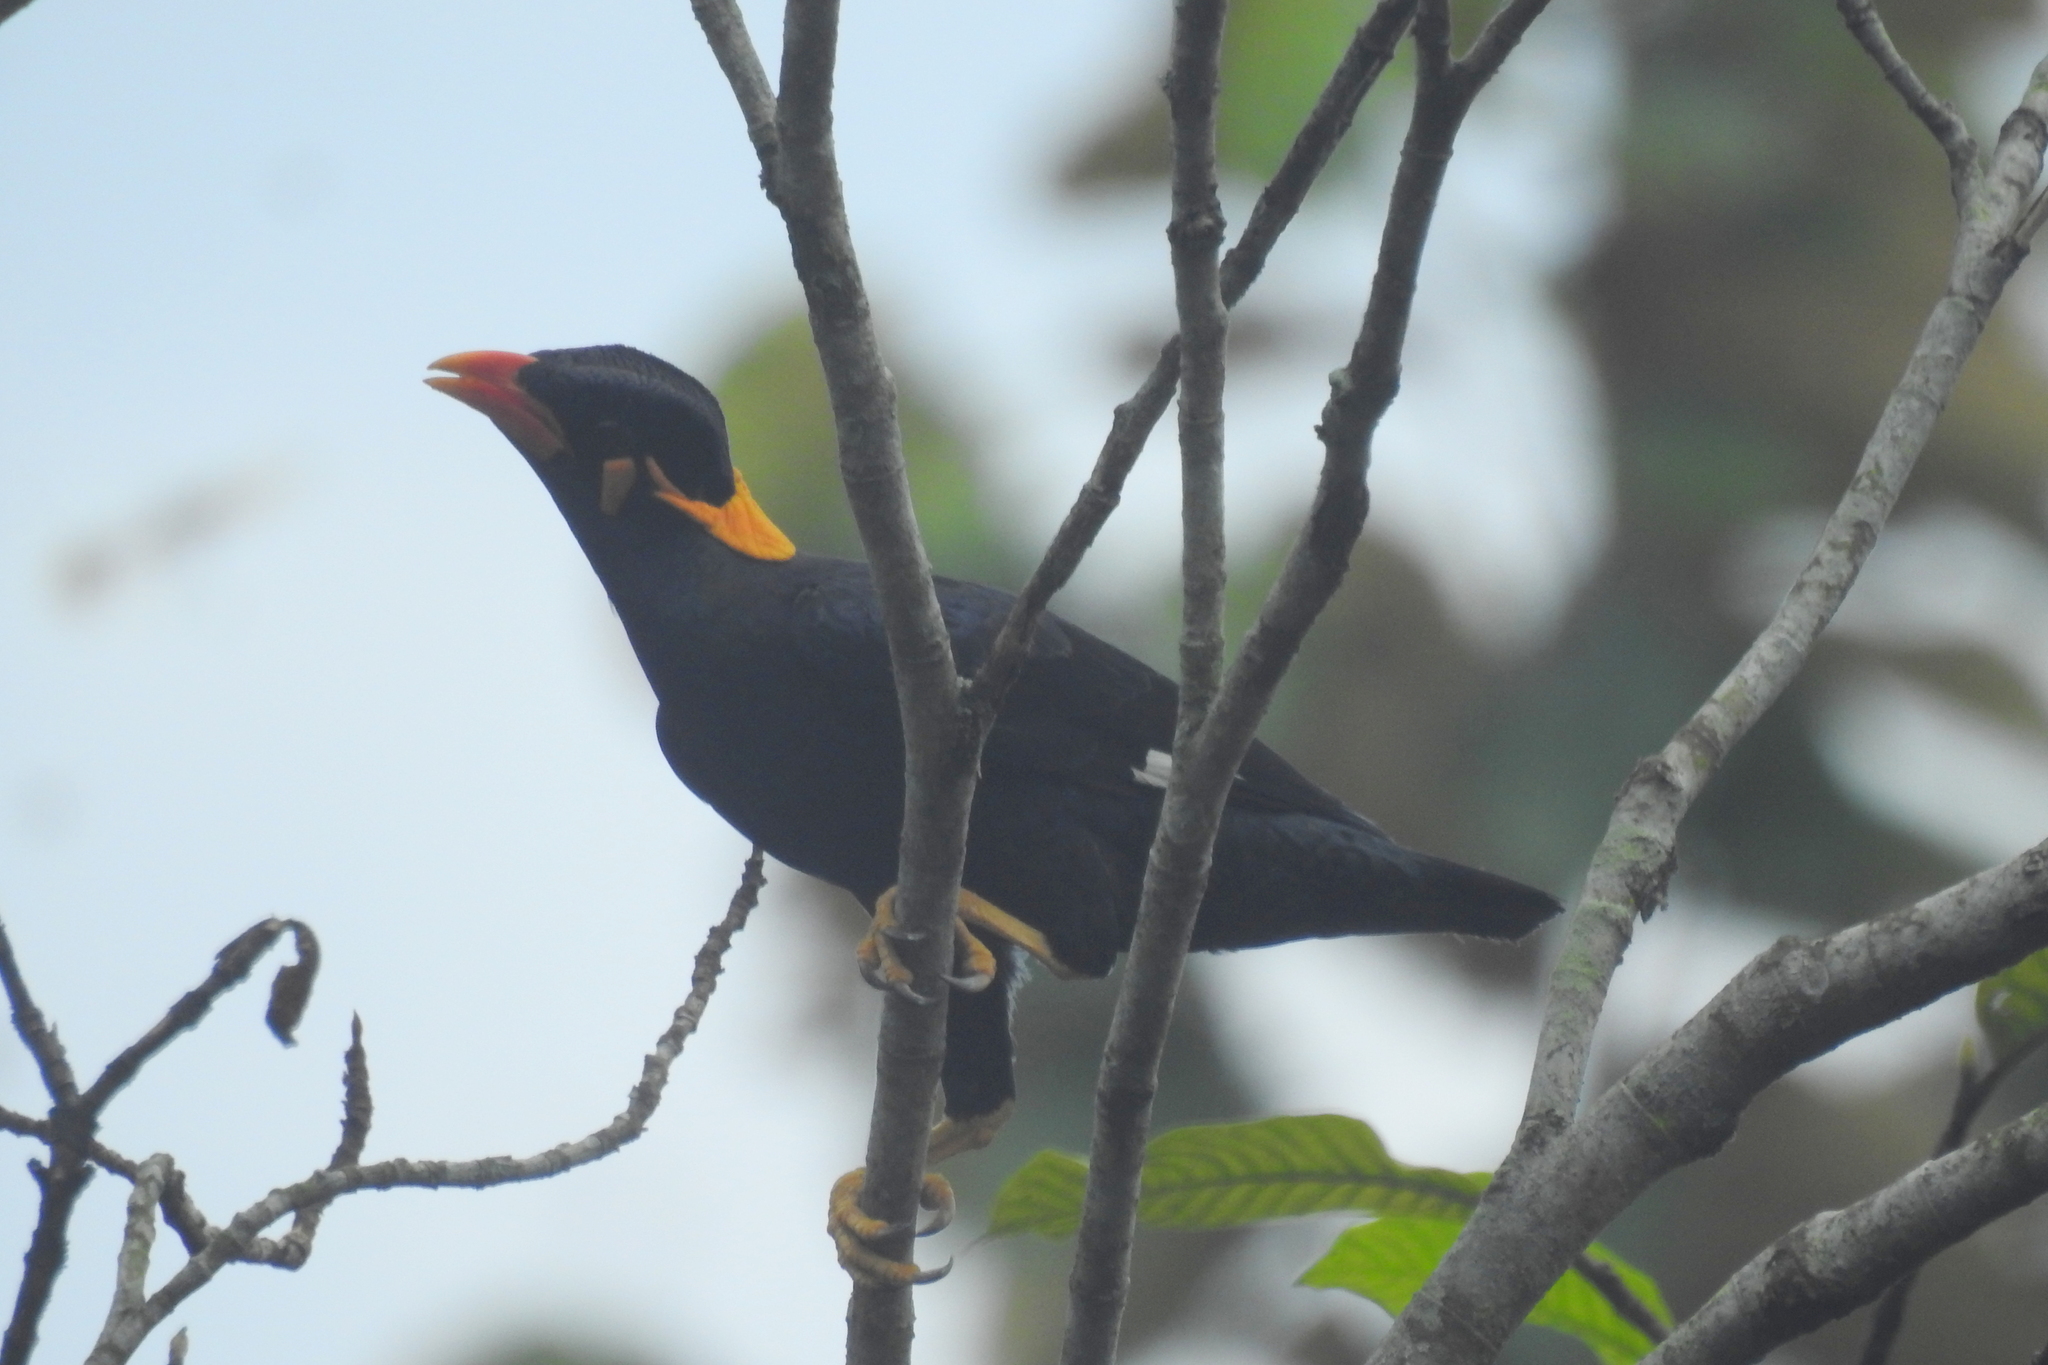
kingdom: Animalia
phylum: Chordata
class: Aves
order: Passeriformes
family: Sturnidae
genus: Gracula
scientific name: Gracula religiosa
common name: Common hill myna
